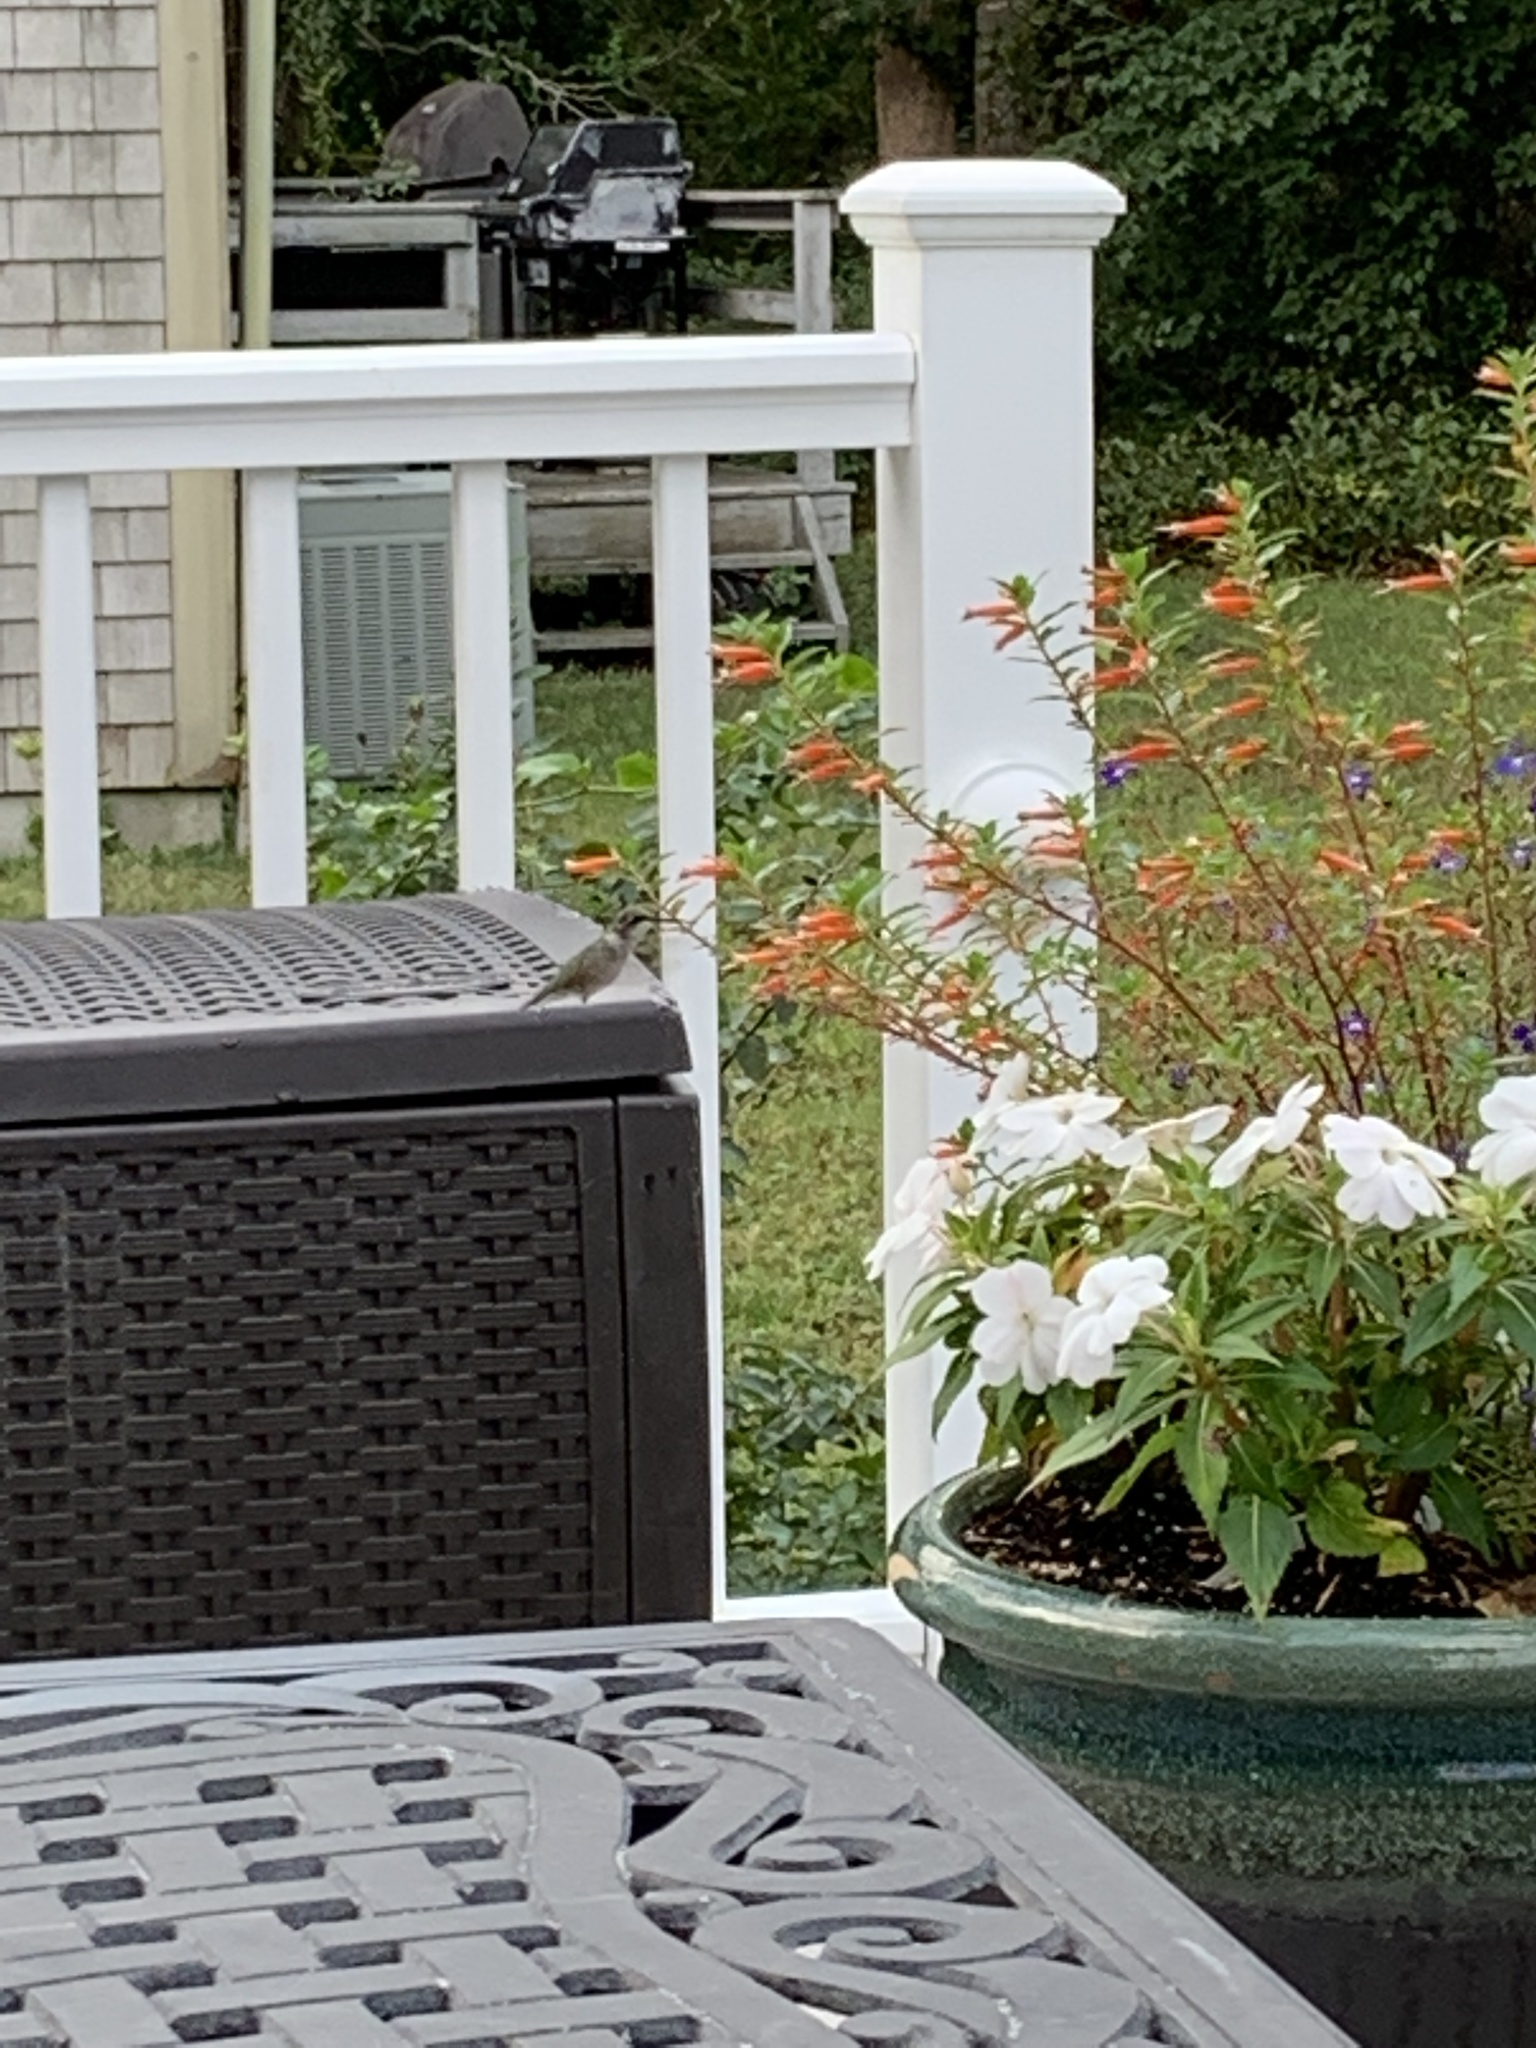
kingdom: Animalia
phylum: Chordata
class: Aves
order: Apodiformes
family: Trochilidae
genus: Archilochus
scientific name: Archilochus colubris
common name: Ruby-throated hummingbird
